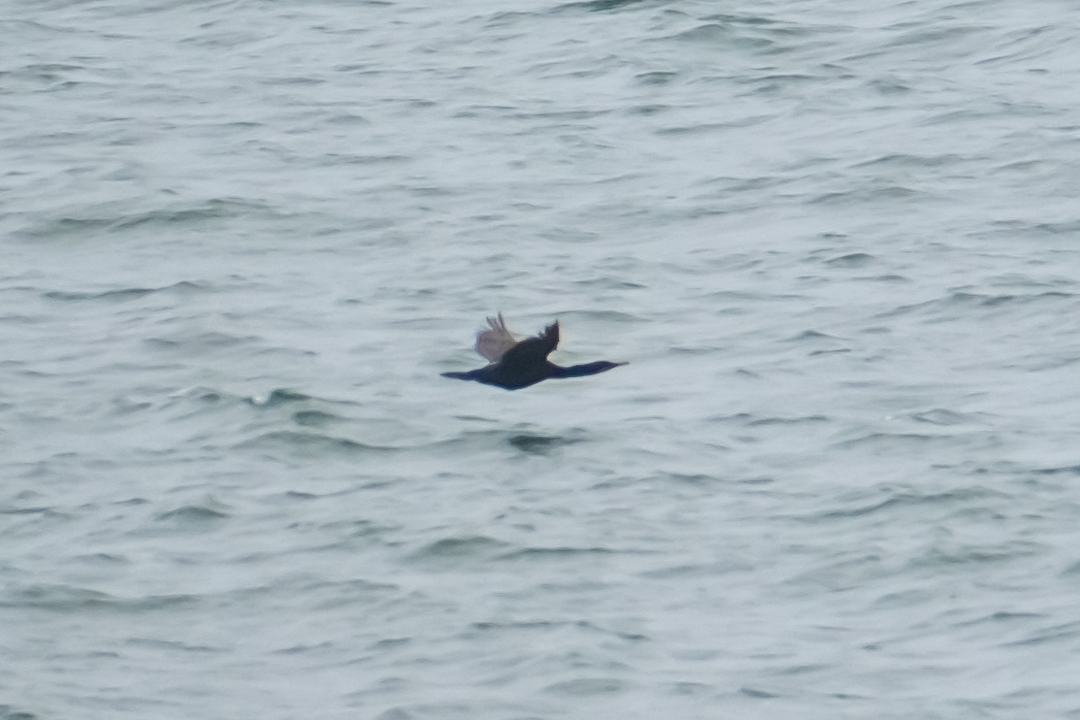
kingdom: Animalia
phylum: Chordata
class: Aves
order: Suliformes
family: Phalacrocoracidae
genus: Urile
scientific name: Urile penicillatus
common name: Brandt's cormorant
